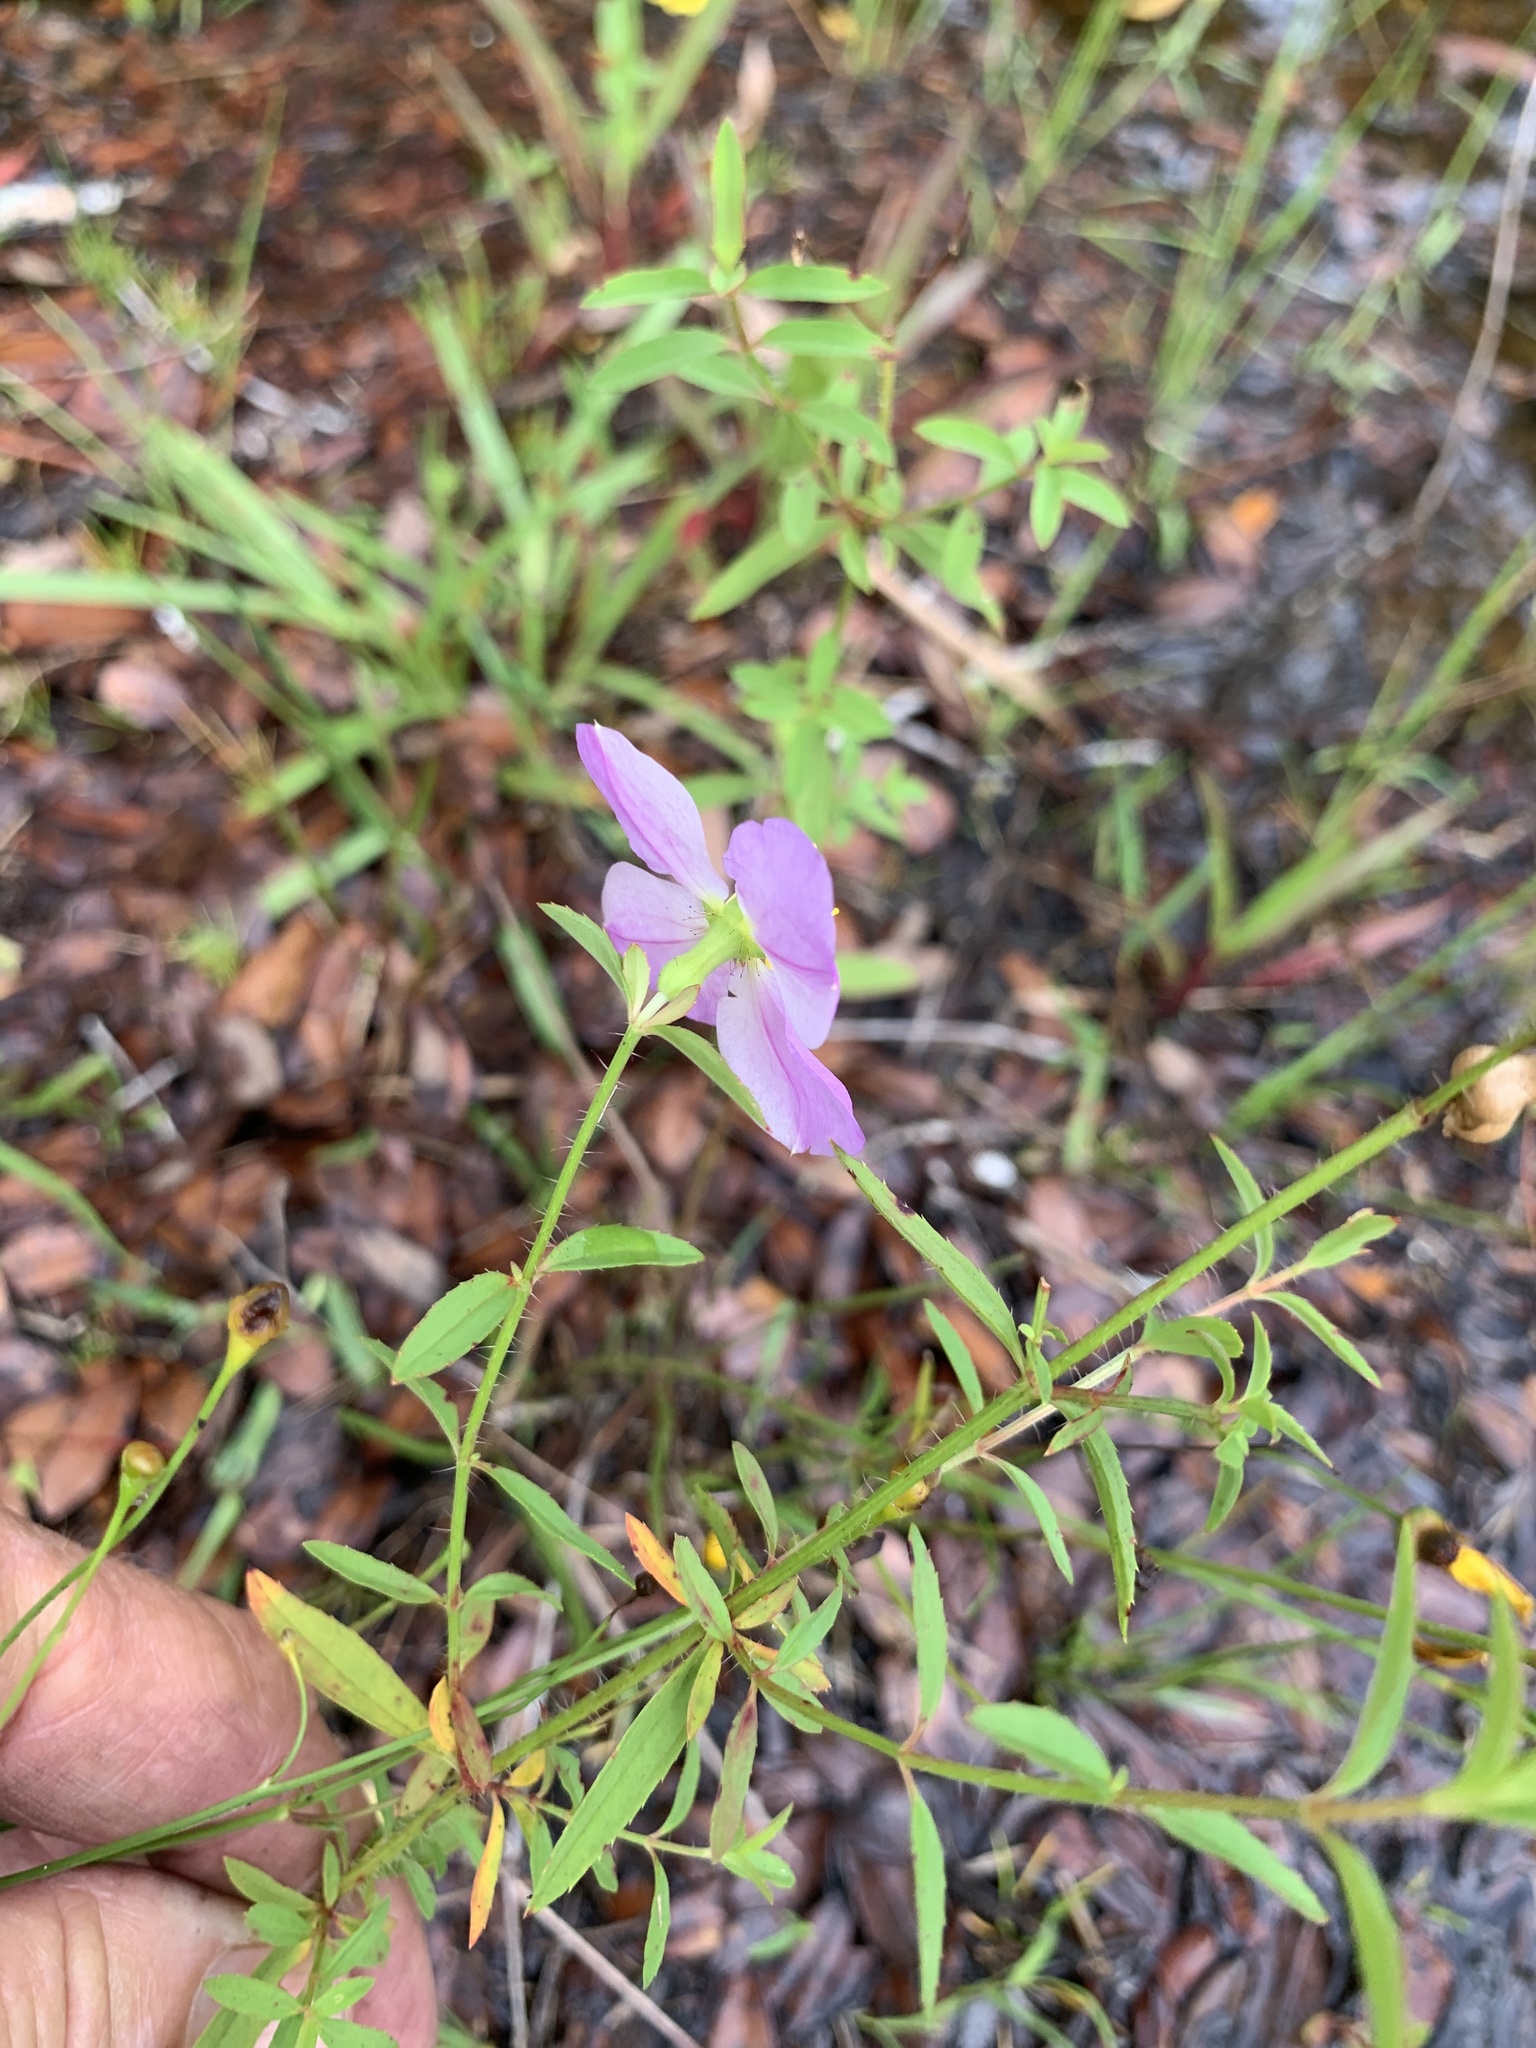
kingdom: Plantae
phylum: Tracheophyta
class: Magnoliopsida
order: Myrtales
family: Melastomataceae
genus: Rhexia
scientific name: Rhexia mariana
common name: Dull meadow-pitcher
